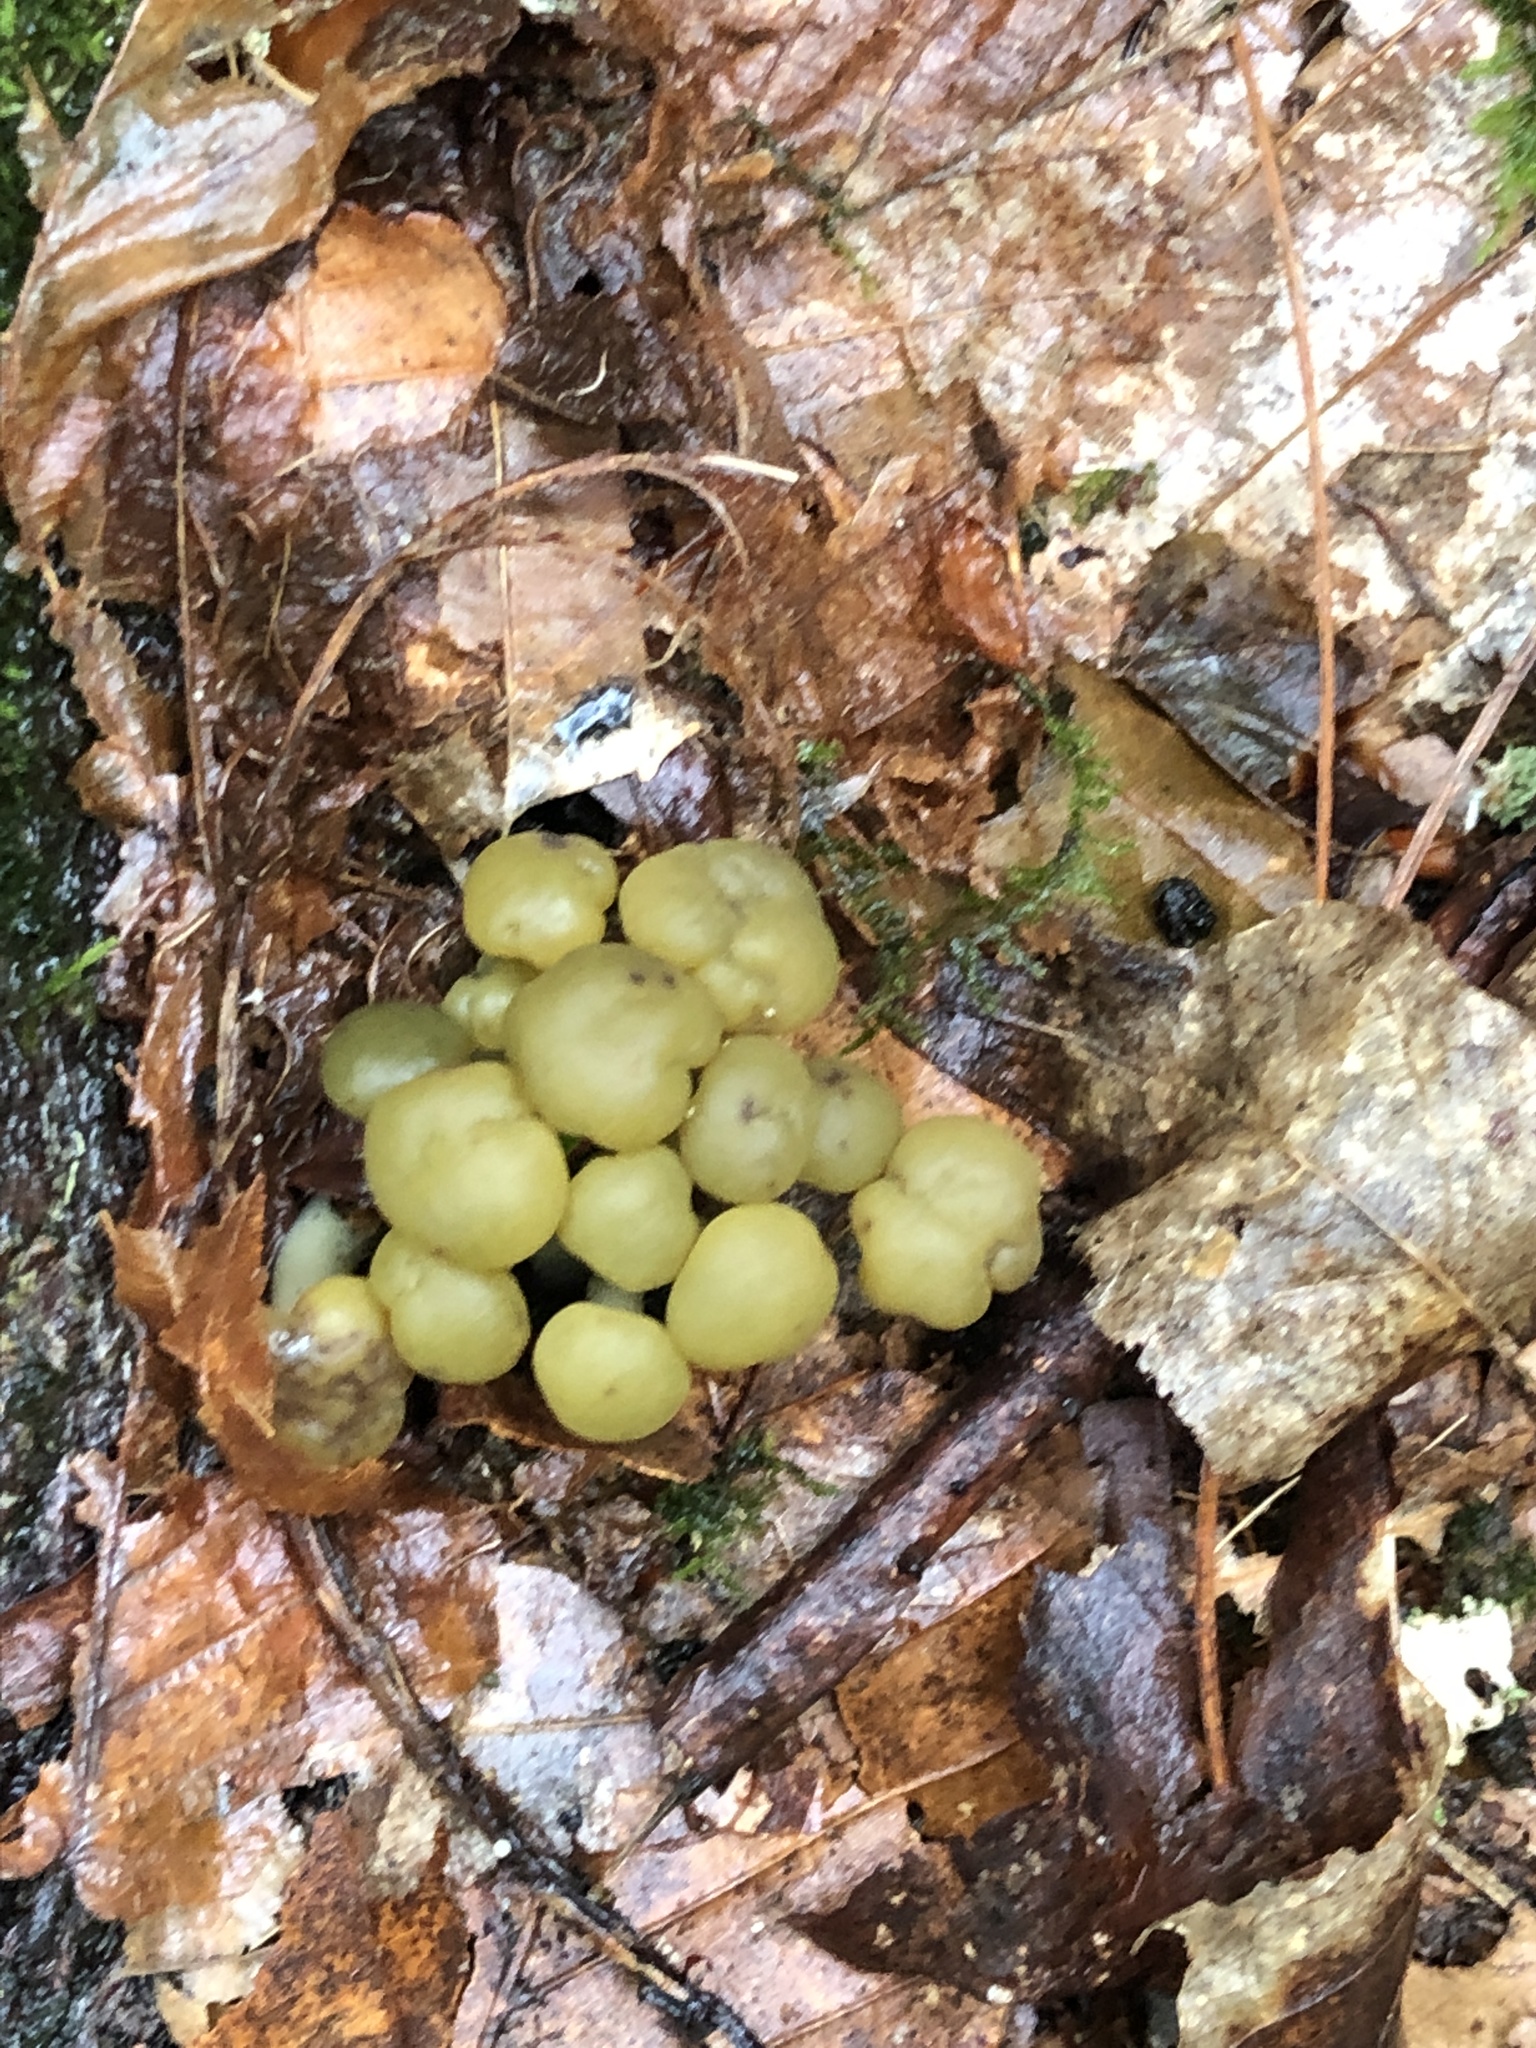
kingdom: Fungi
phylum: Ascomycota
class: Leotiomycetes
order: Leotiales
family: Leotiaceae
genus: Leotia
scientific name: Leotia lubrica
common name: Jellybaby
